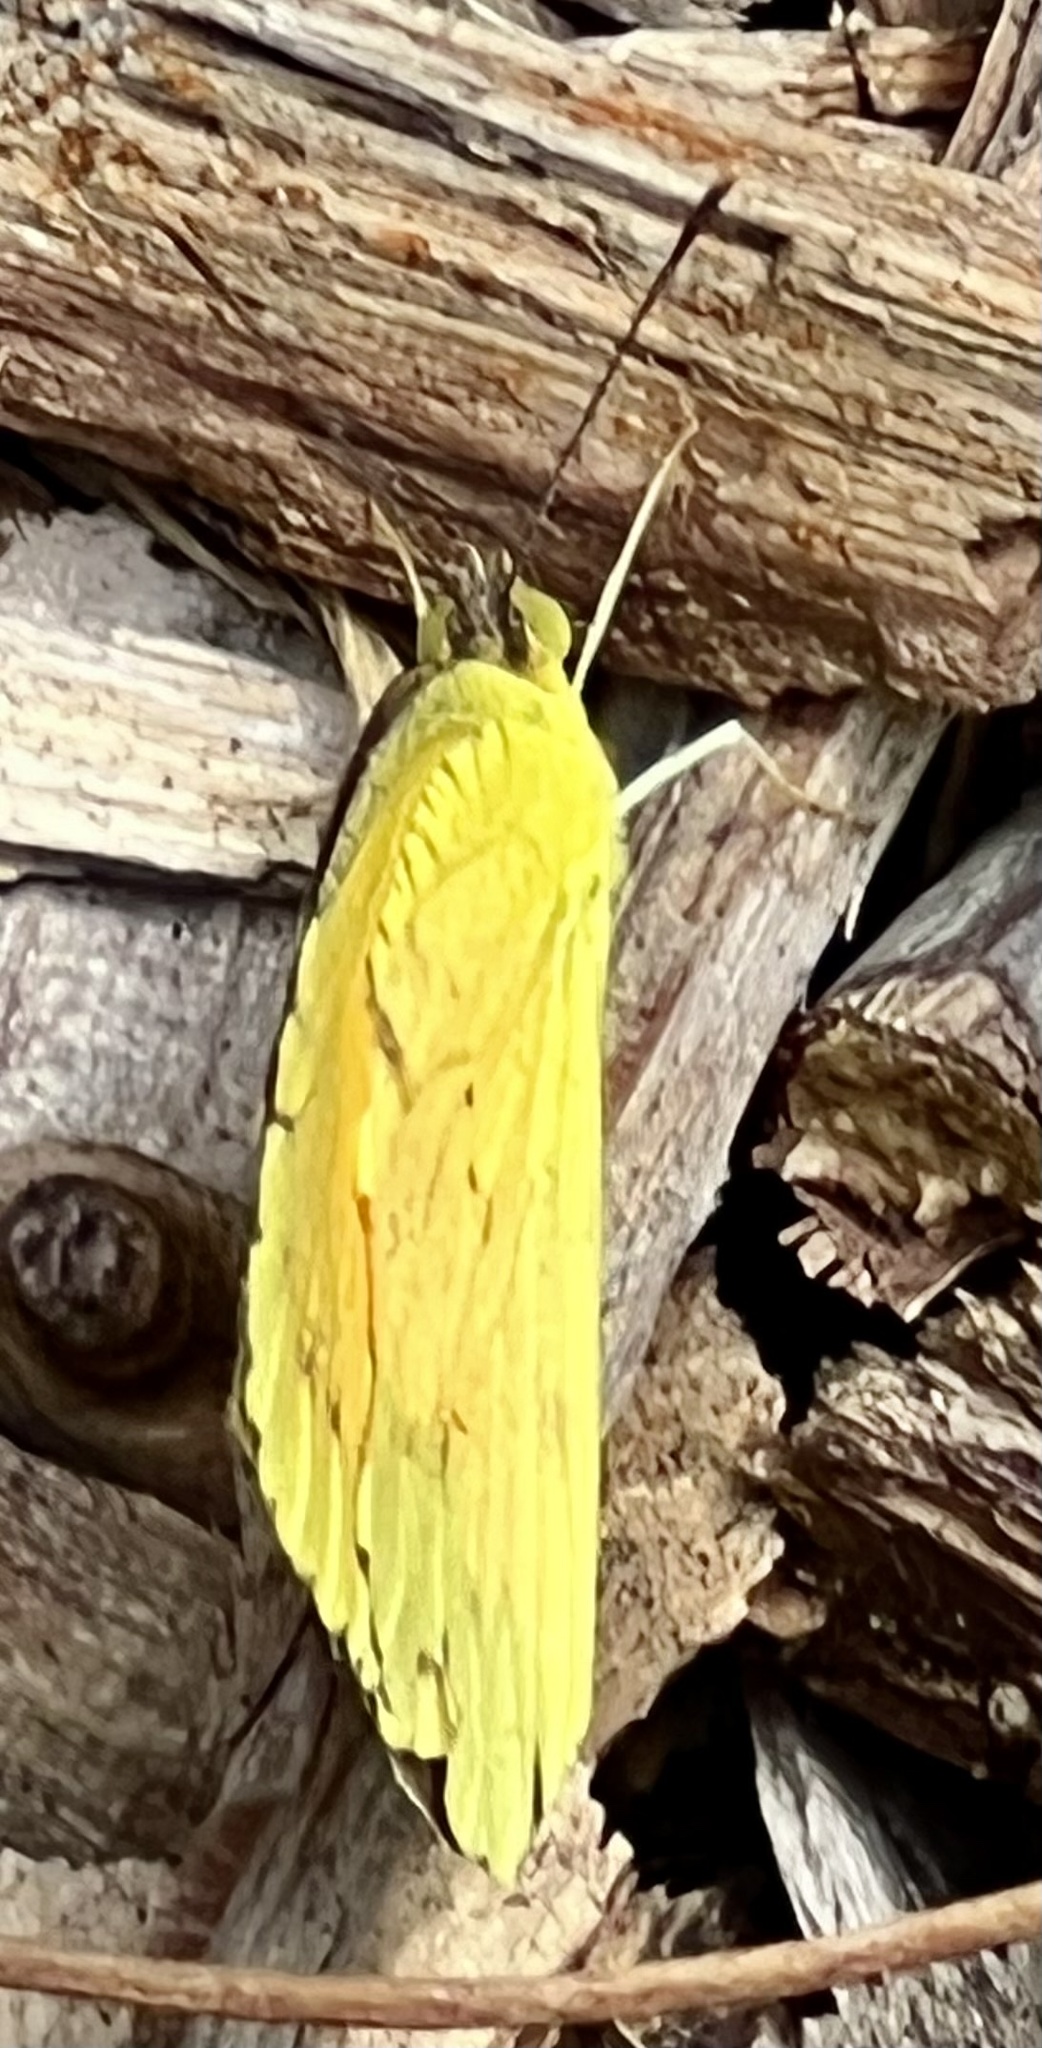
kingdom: Animalia
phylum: Arthropoda
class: Insecta
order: Lepidoptera
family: Pieridae
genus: Abaeis
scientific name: Abaeis nicippe
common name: Sleepy orange
